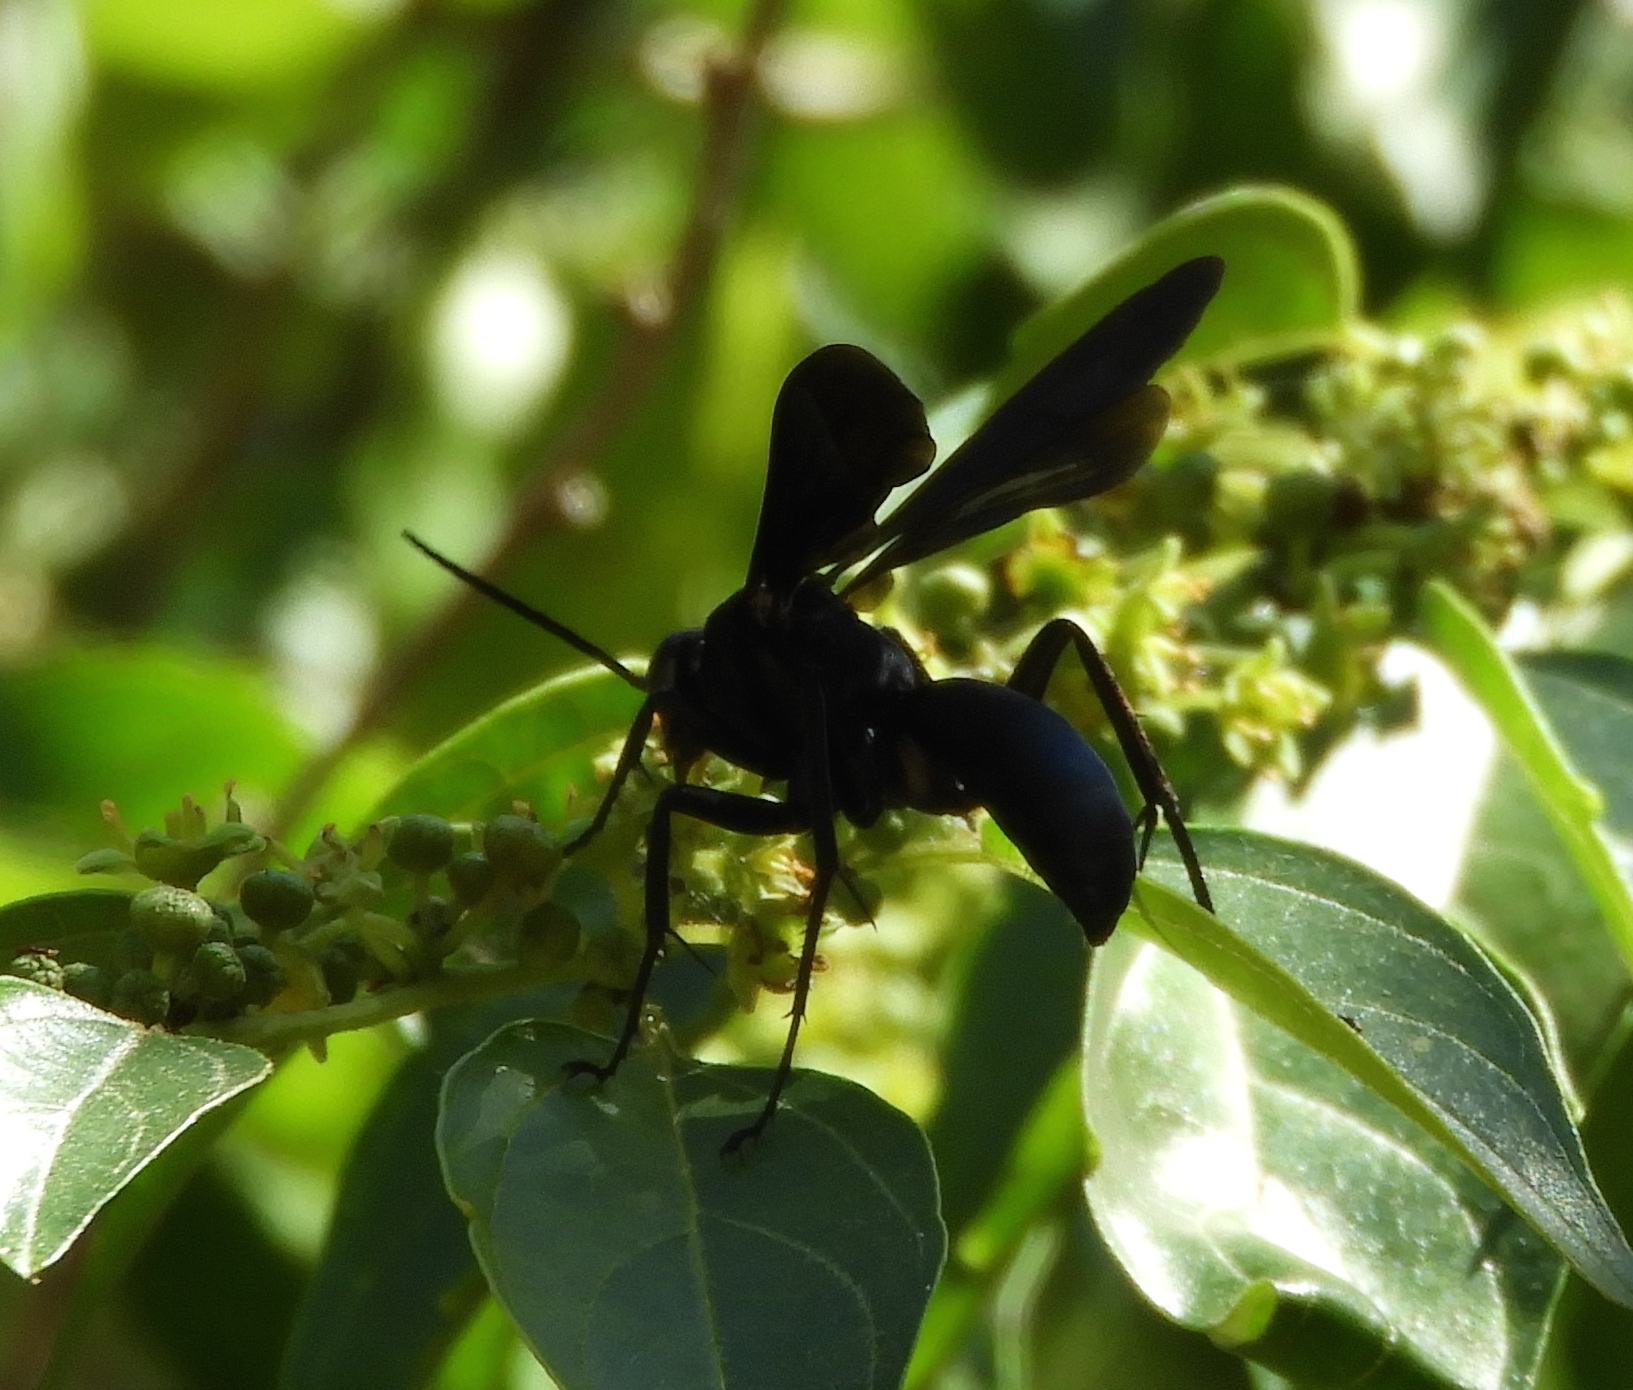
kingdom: Animalia
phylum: Arthropoda
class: Insecta
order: Hymenoptera
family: Pompilidae
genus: Pepsis
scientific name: Pepsis mexicana
